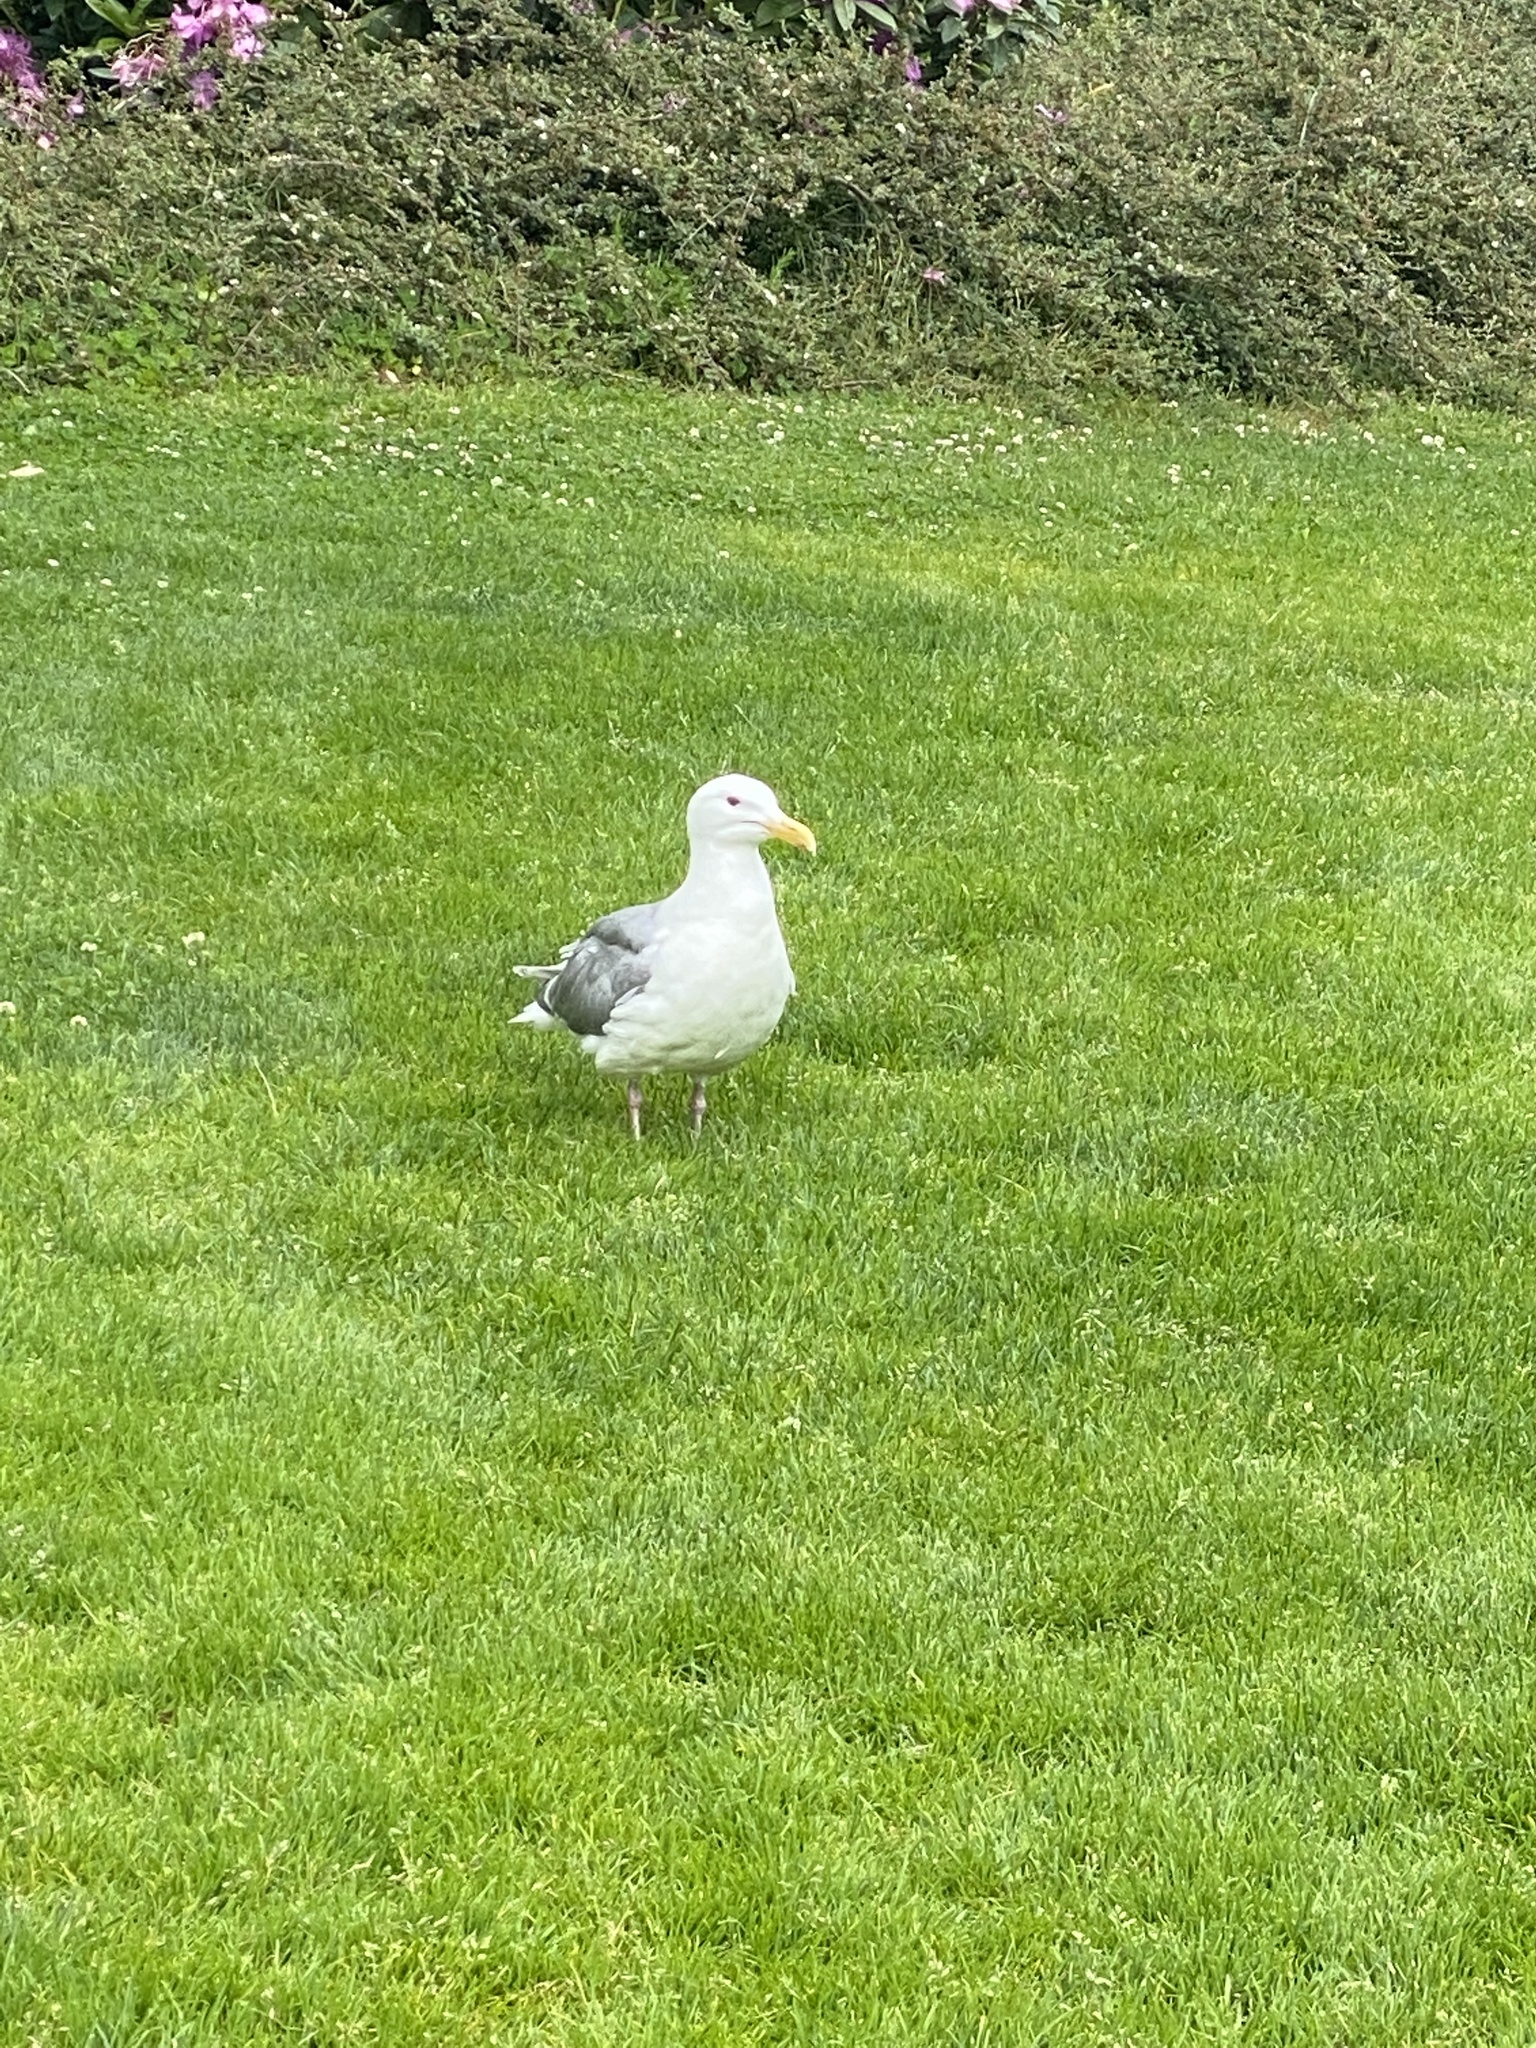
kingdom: Animalia
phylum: Chordata
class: Aves
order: Charadriiformes
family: Laridae
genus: Larus
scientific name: Larus
